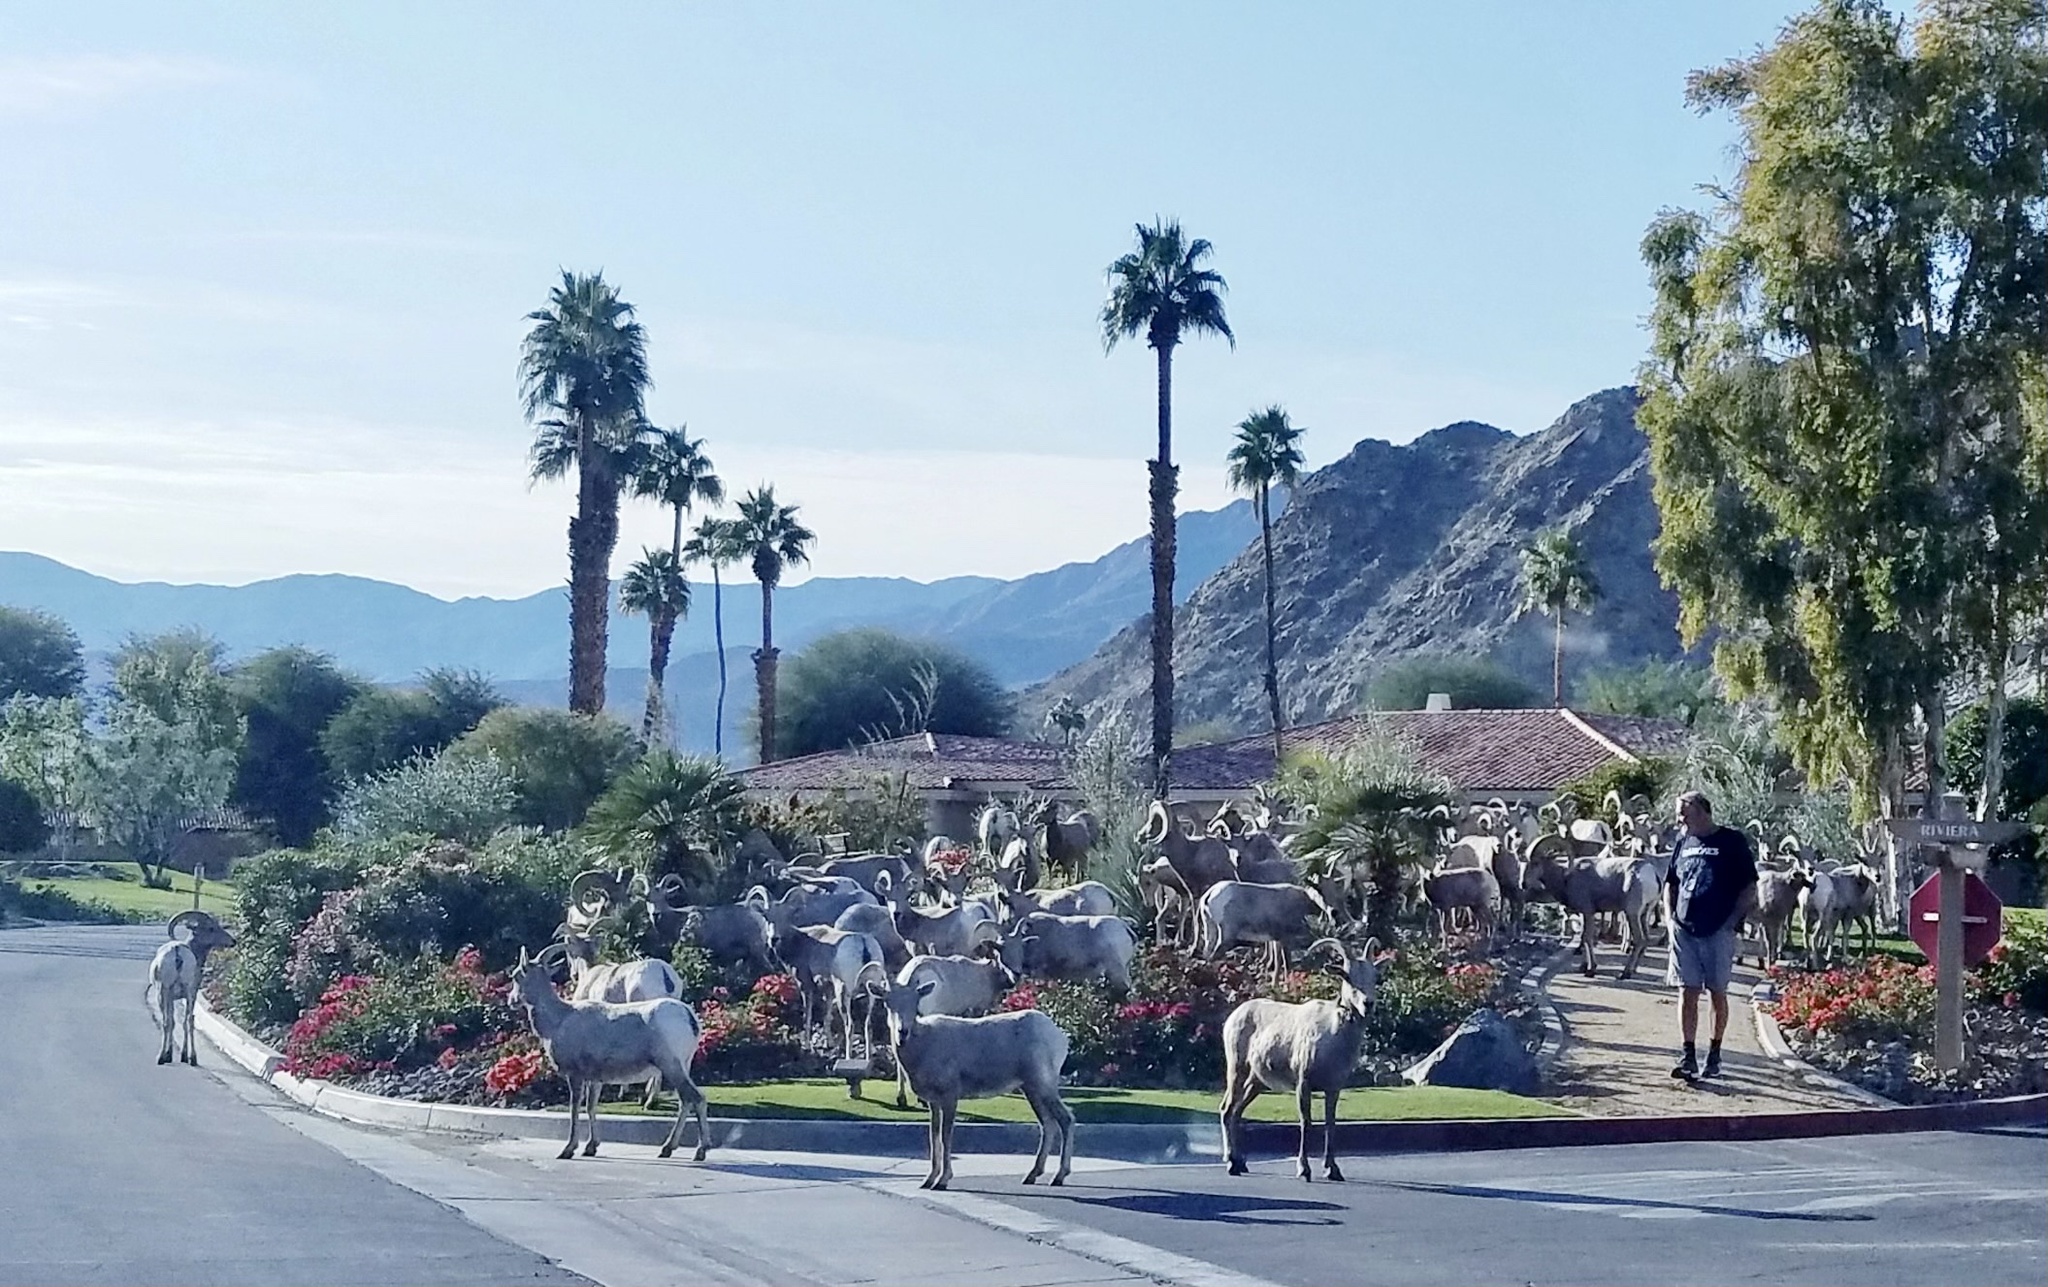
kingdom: Animalia
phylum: Chordata
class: Mammalia
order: Artiodactyla
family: Bovidae
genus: Ovis
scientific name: Ovis canadensis
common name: Bighorn sheep
